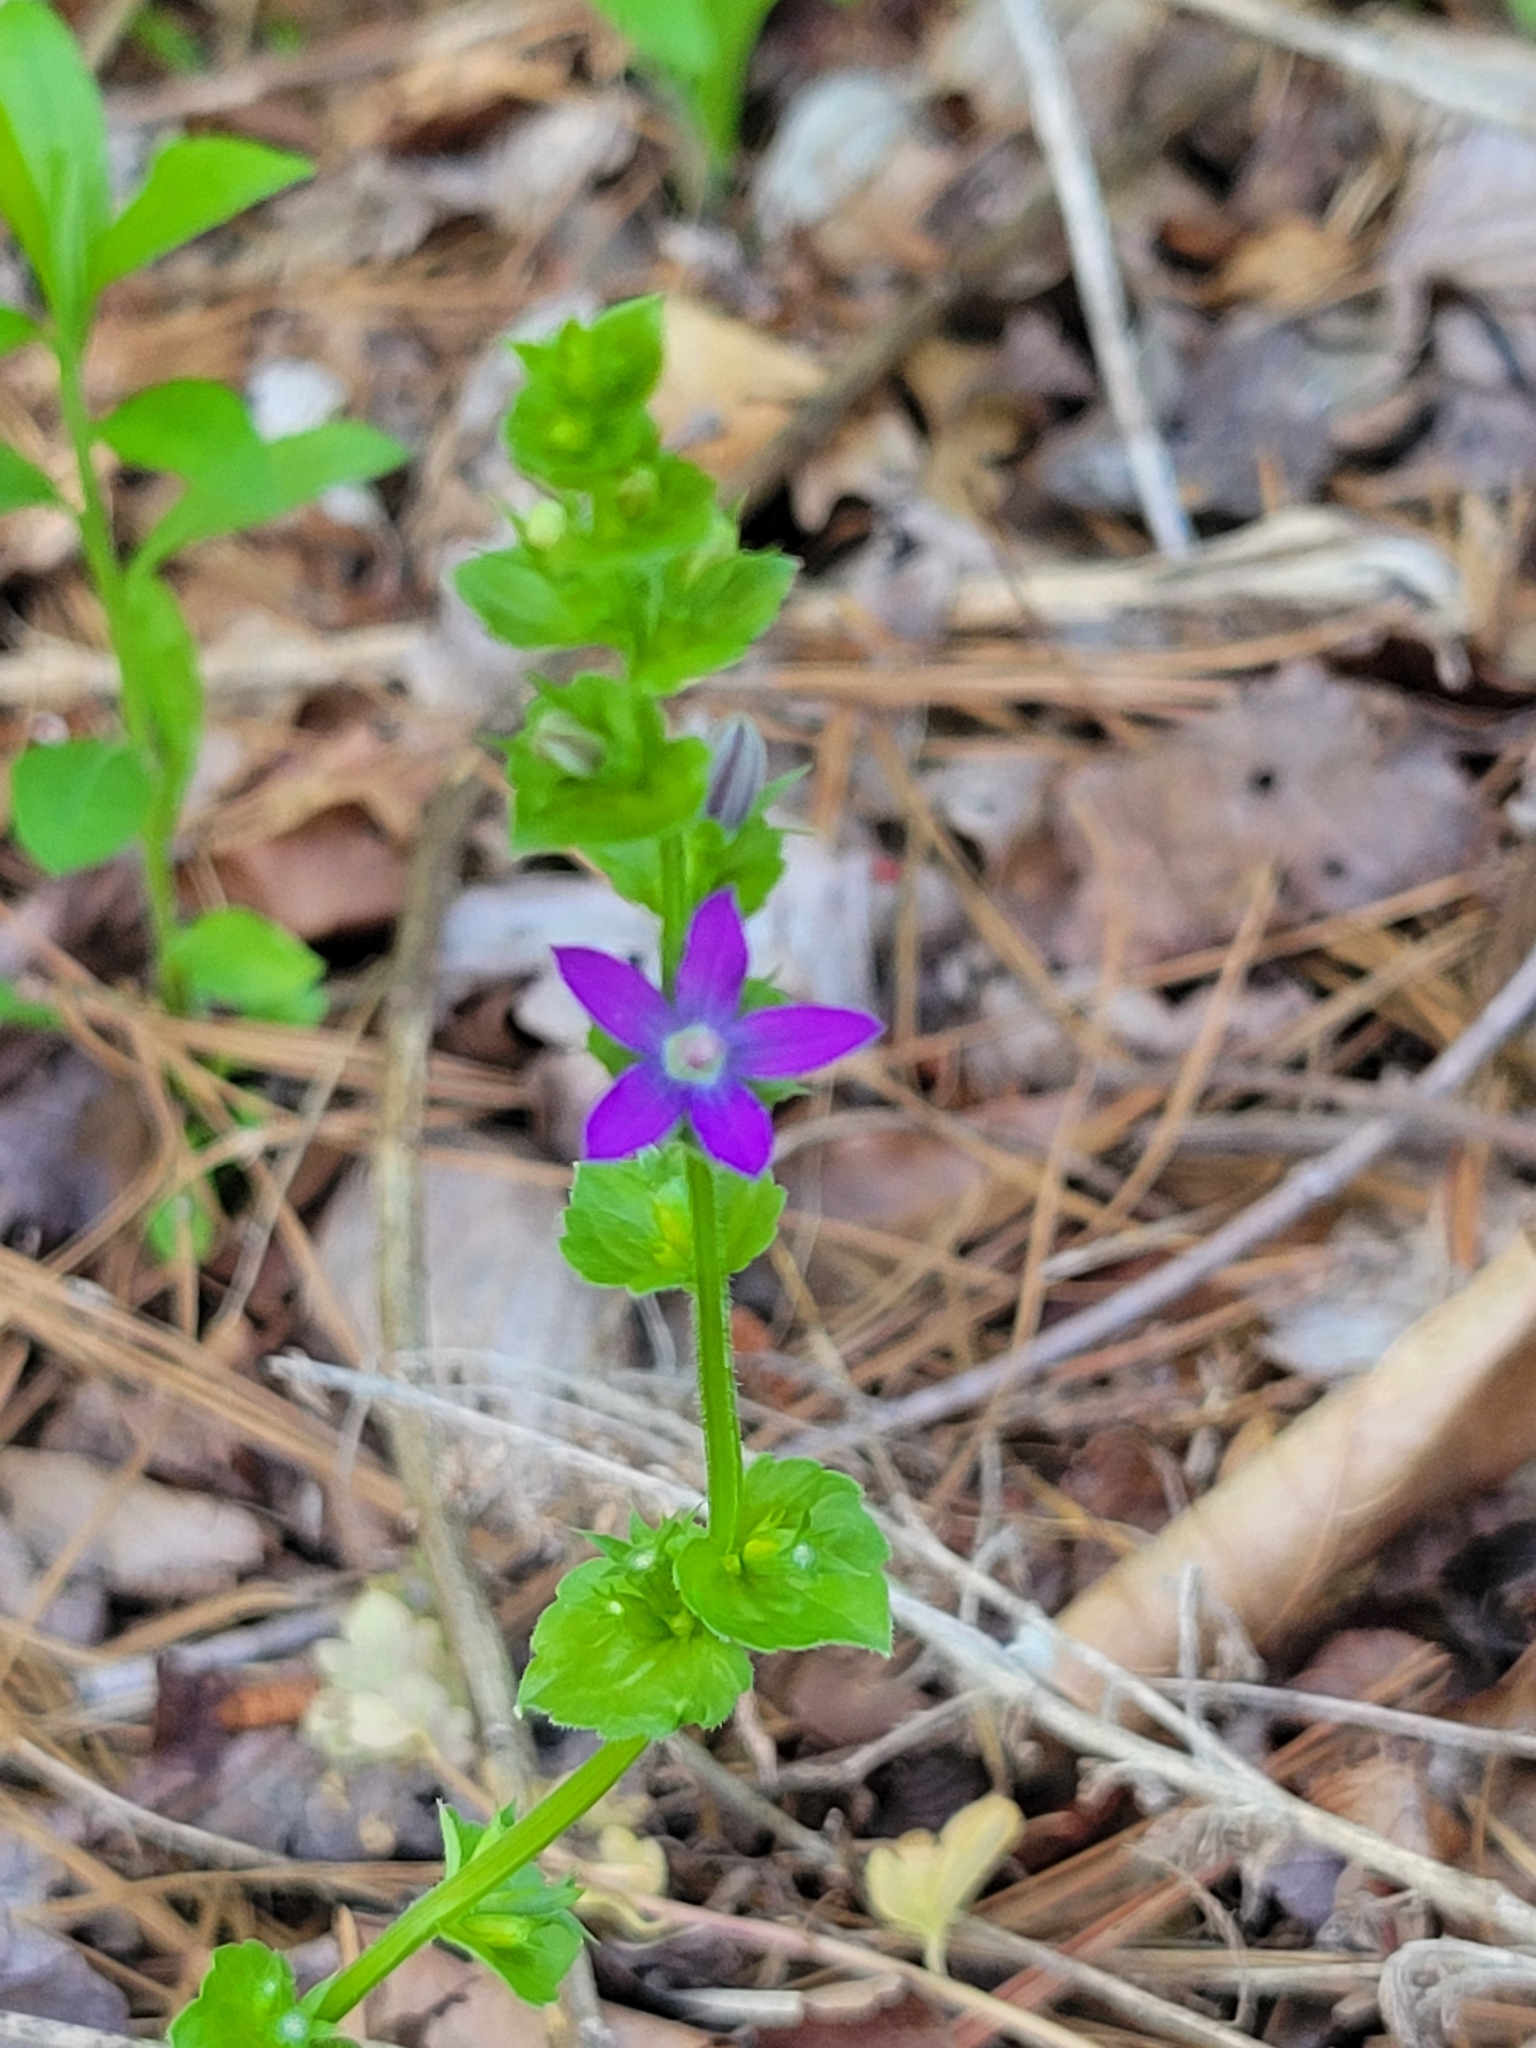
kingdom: Plantae
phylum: Tracheophyta
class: Magnoliopsida
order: Asterales
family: Campanulaceae
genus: Triodanis
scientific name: Triodanis perfoliata
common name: Clasping venus' looking-glass
